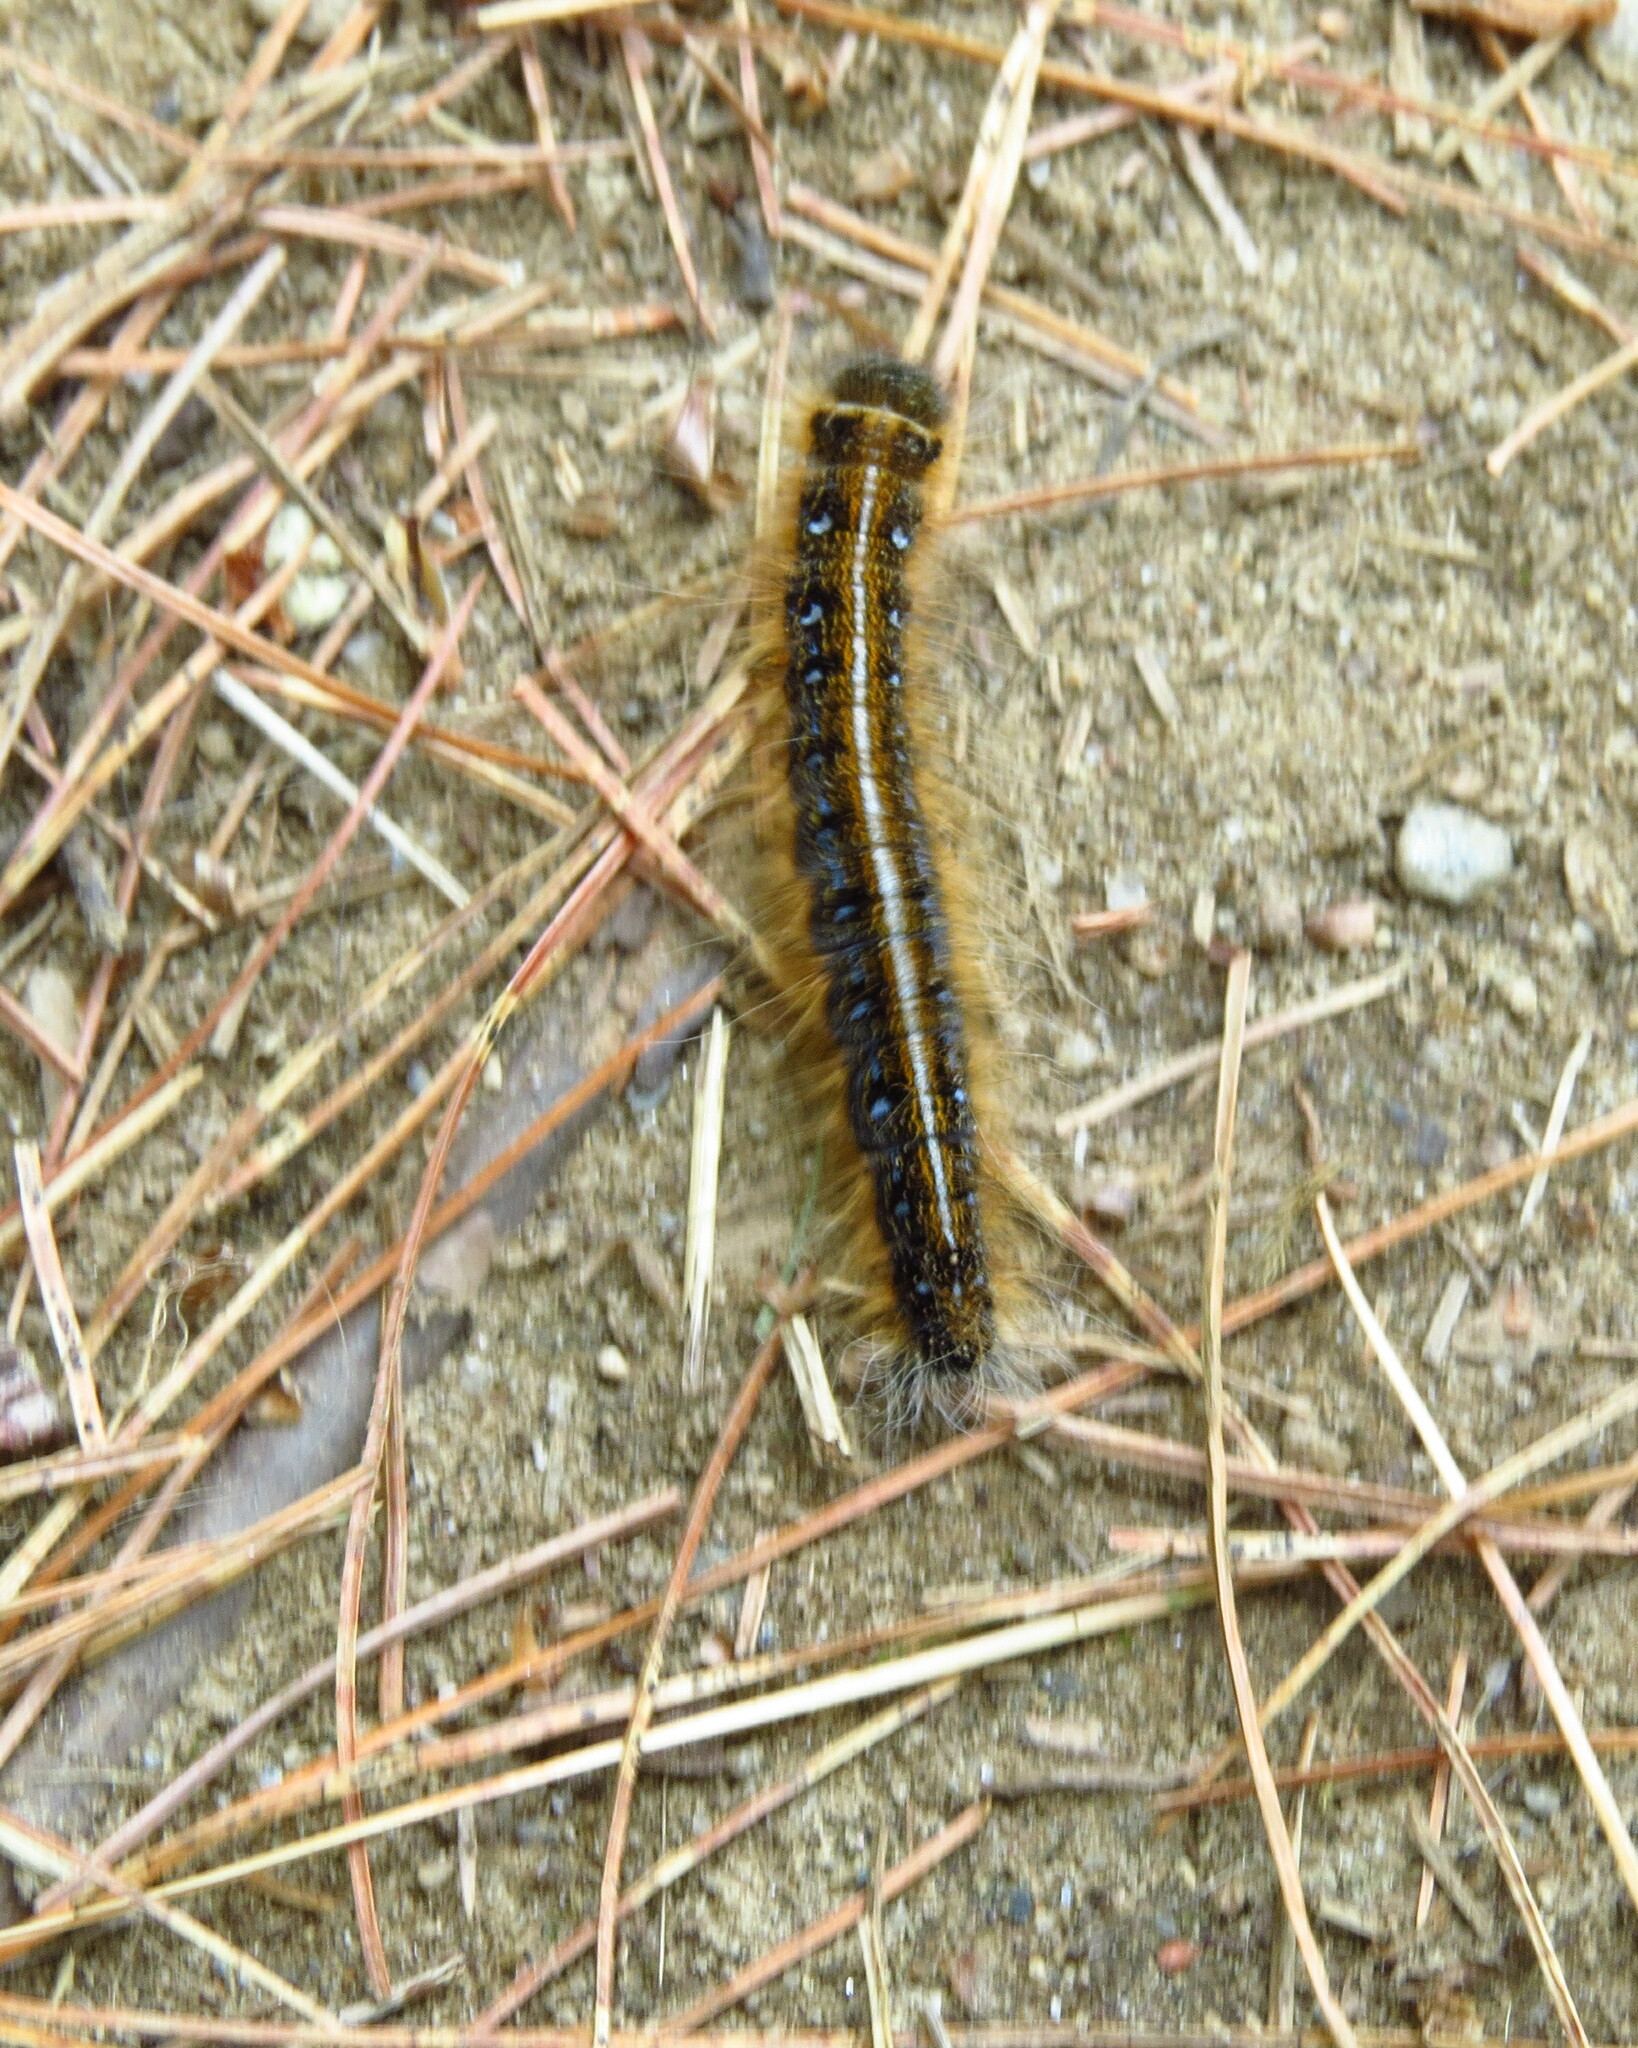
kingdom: Animalia
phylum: Arthropoda
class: Insecta
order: Lepidoptera
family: Lasiocampidae
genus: Malacosoma
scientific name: Malacosoma americana
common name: Eastern tent caterpillar moth
